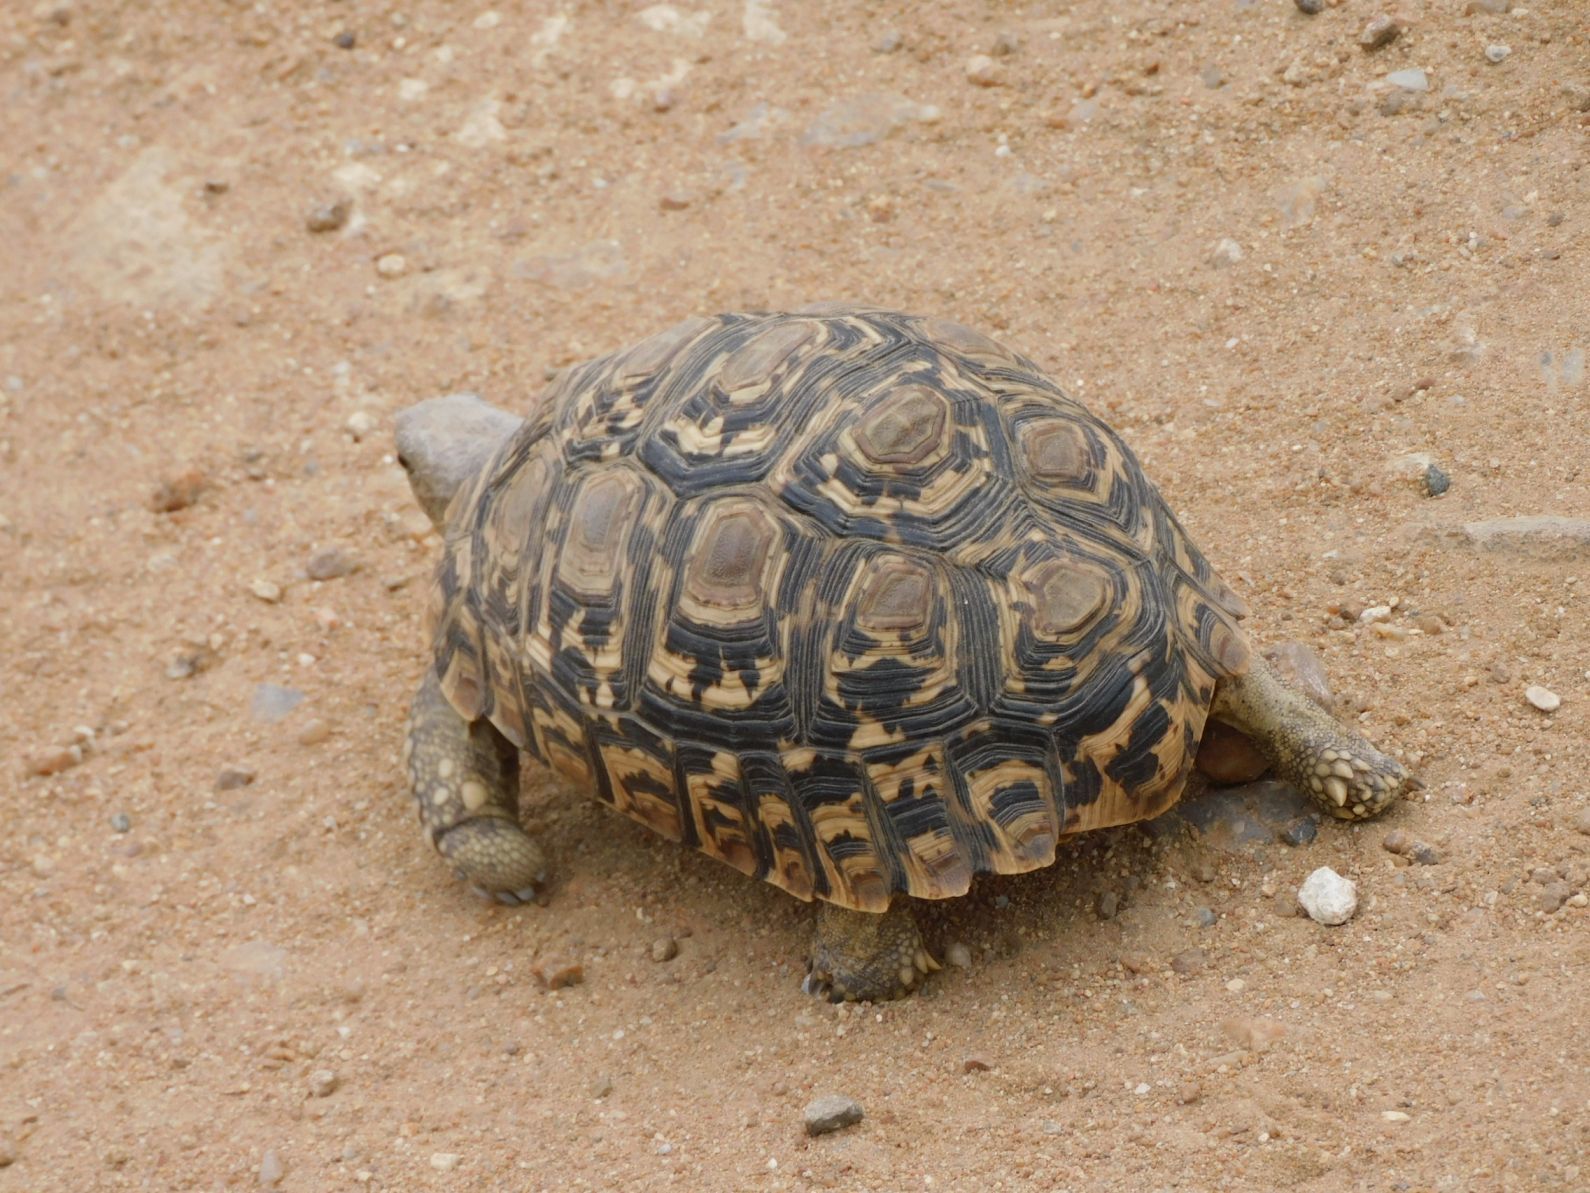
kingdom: Animalia
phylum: Chordata
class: Testudines
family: Testudinidae
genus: Stigmochelys
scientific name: Stigmochelys pardalis
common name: Leopard tortoise
